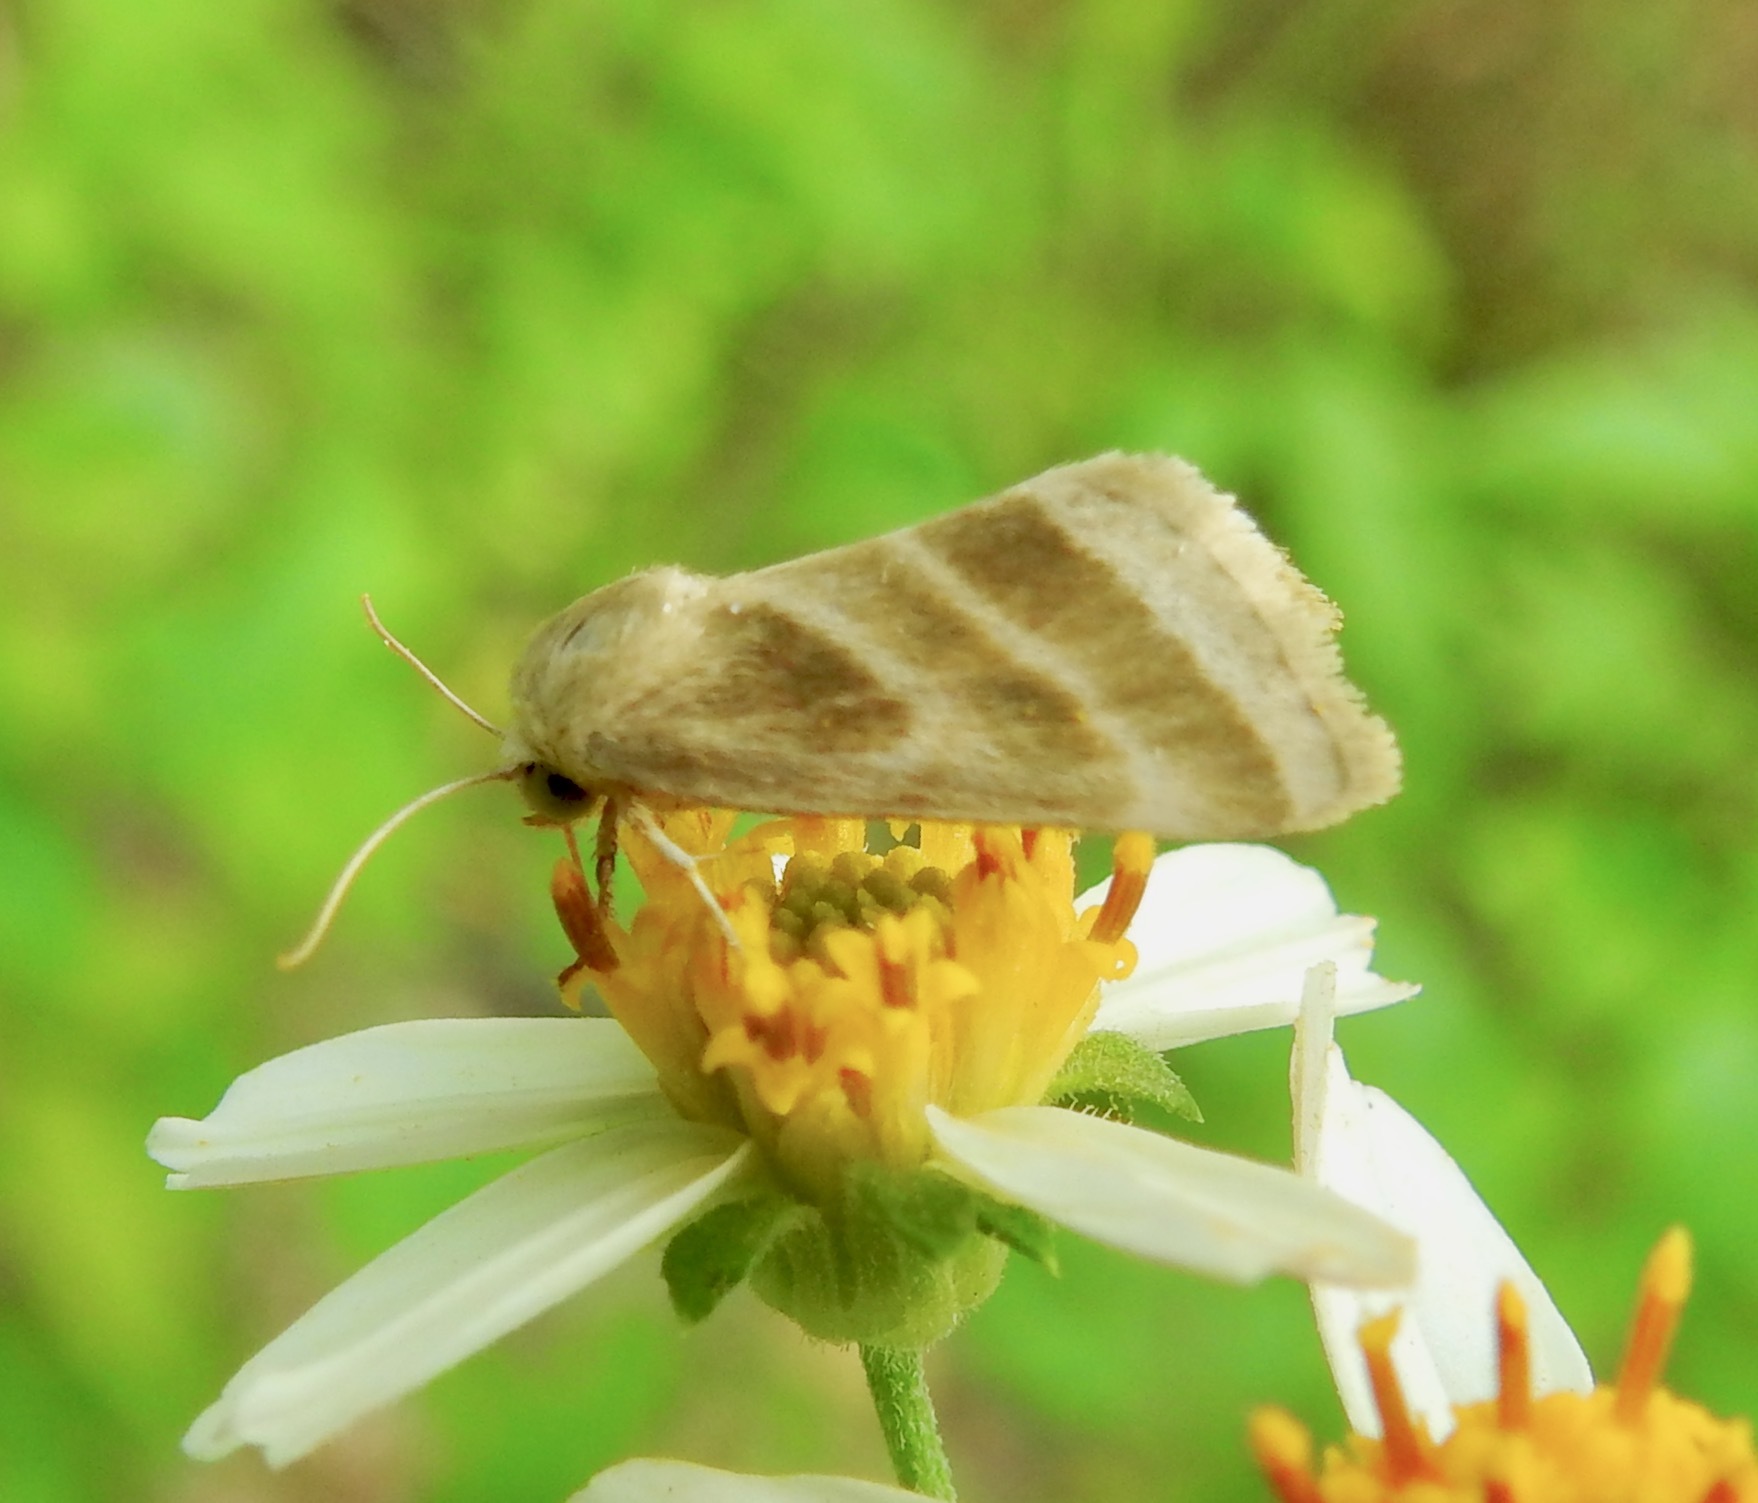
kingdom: Animalia
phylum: Arthropoda
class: Insecta
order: Lepidoptera
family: Noctuidae
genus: Schinia
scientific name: Schinia trifascia
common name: Three-lined flower moth
